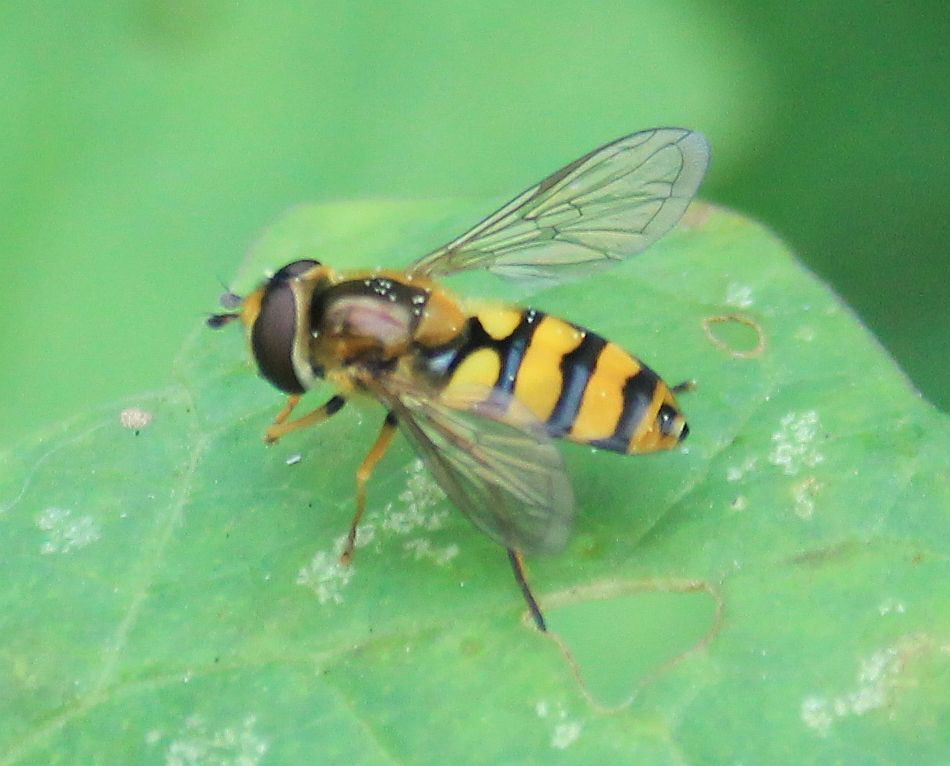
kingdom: Animalia
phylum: Arthropoda
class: Insecta
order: Diptera
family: Syrphidae
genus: Eupeodes
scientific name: Eupeodes latifasciatus
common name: Variable aphideater
